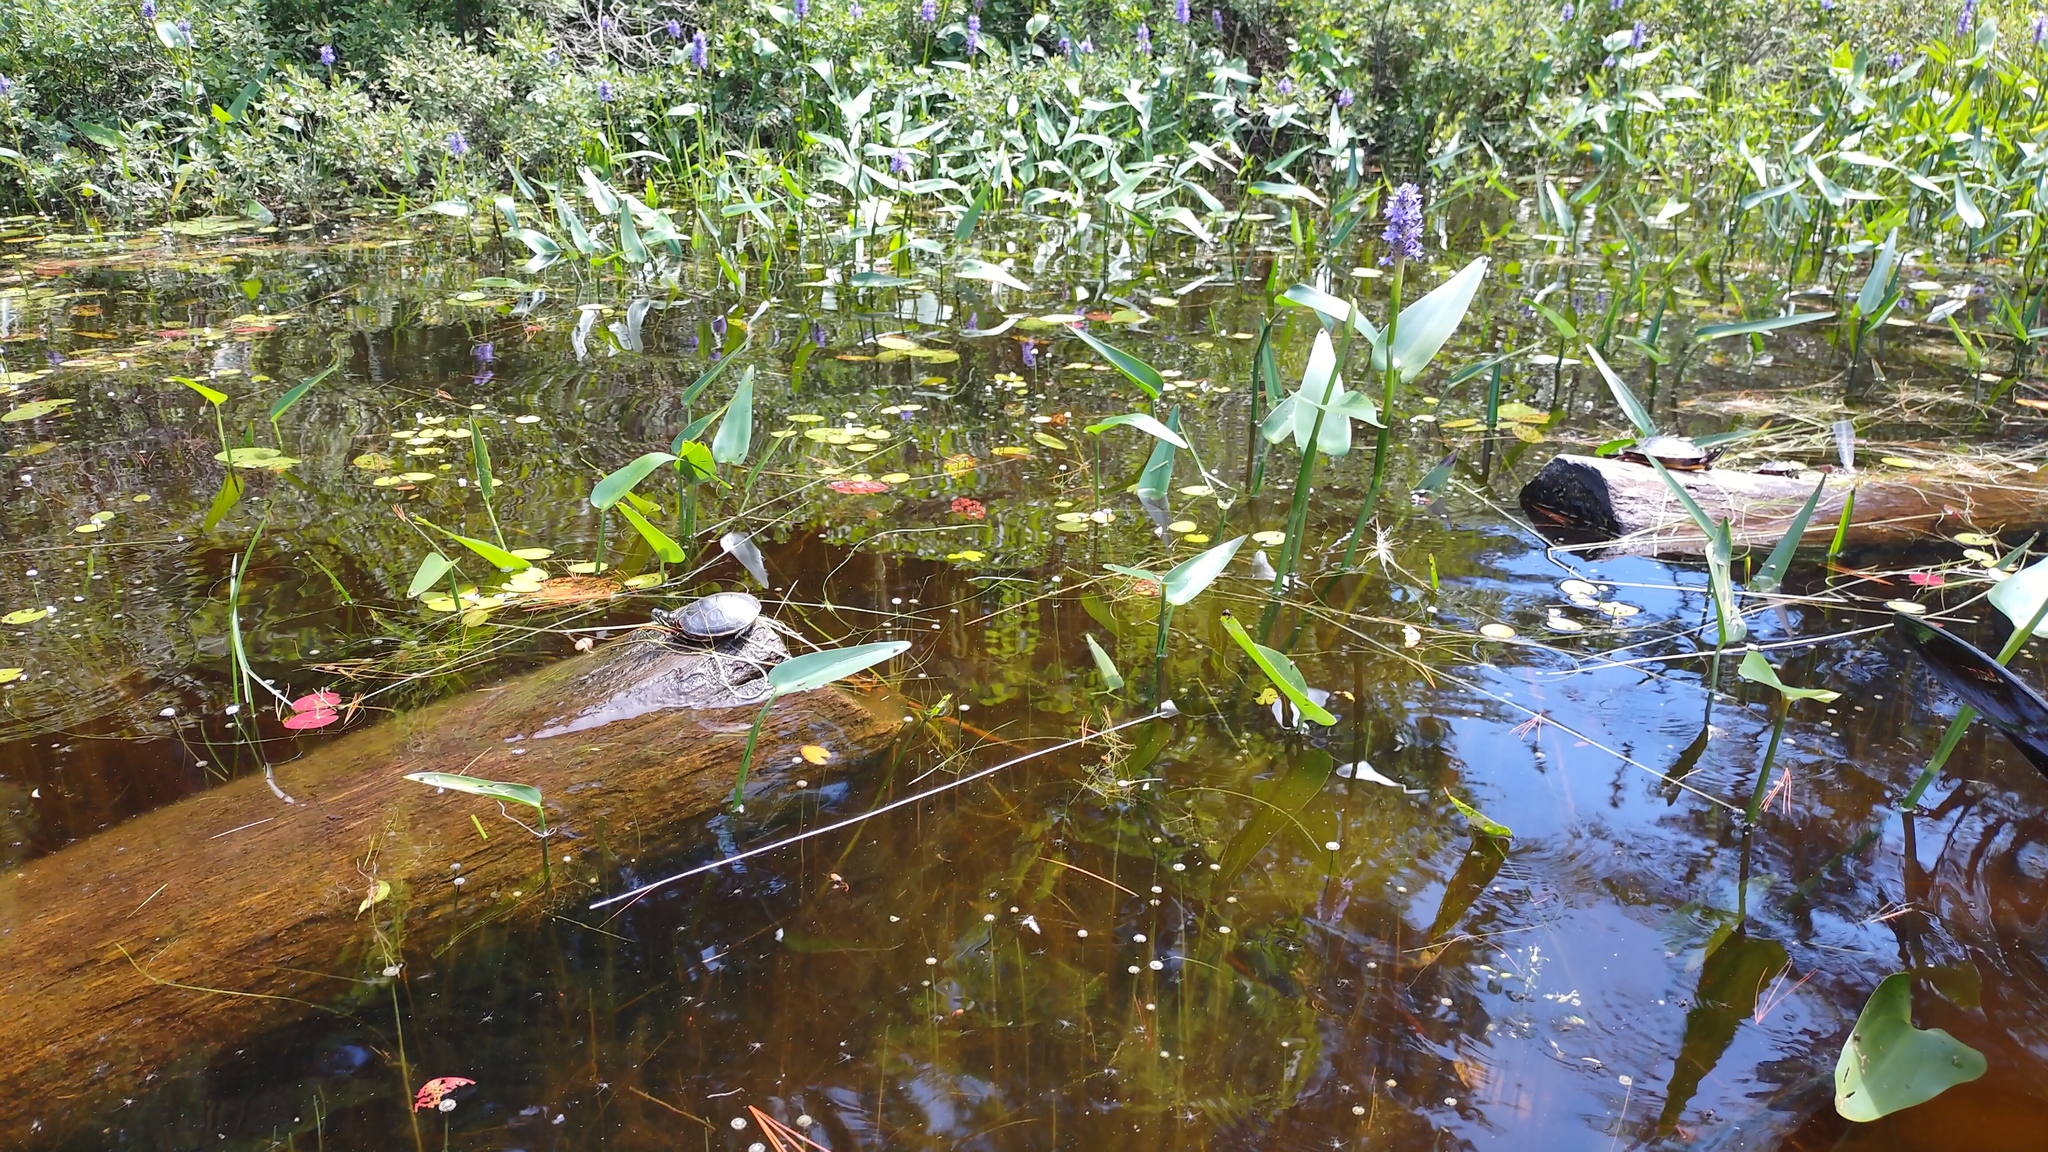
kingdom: Animalia
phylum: Chordata
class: Testudines
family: Emydidae
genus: Chrysemys
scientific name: Chrysemys picta
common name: Painted turtle
